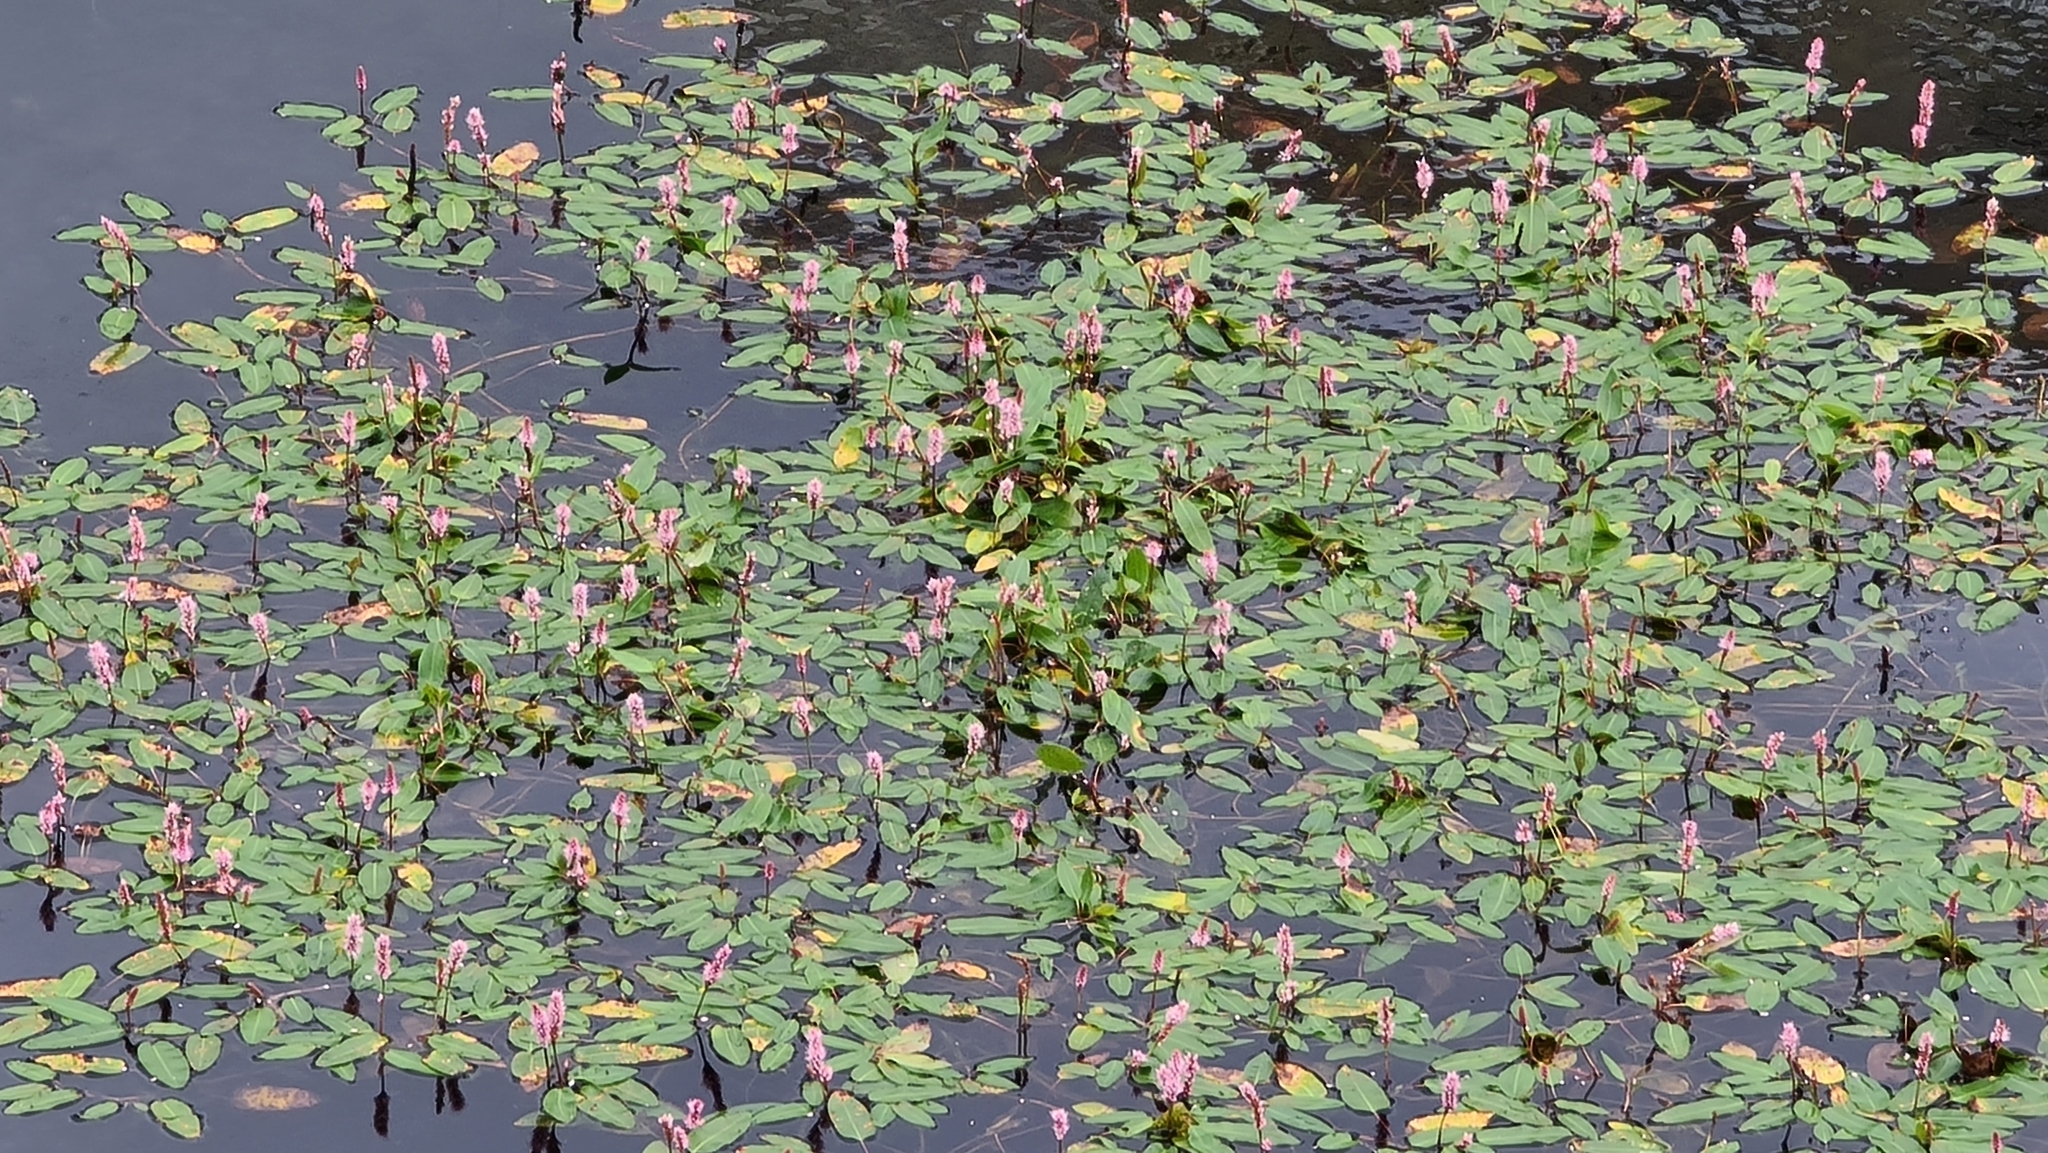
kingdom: Plantae
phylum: Tracheophyta
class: Magnoliopsida
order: Caryophyllales
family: Polygonaceae
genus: Persicaria
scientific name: Persicaria amphibia
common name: Amphibious bistort
